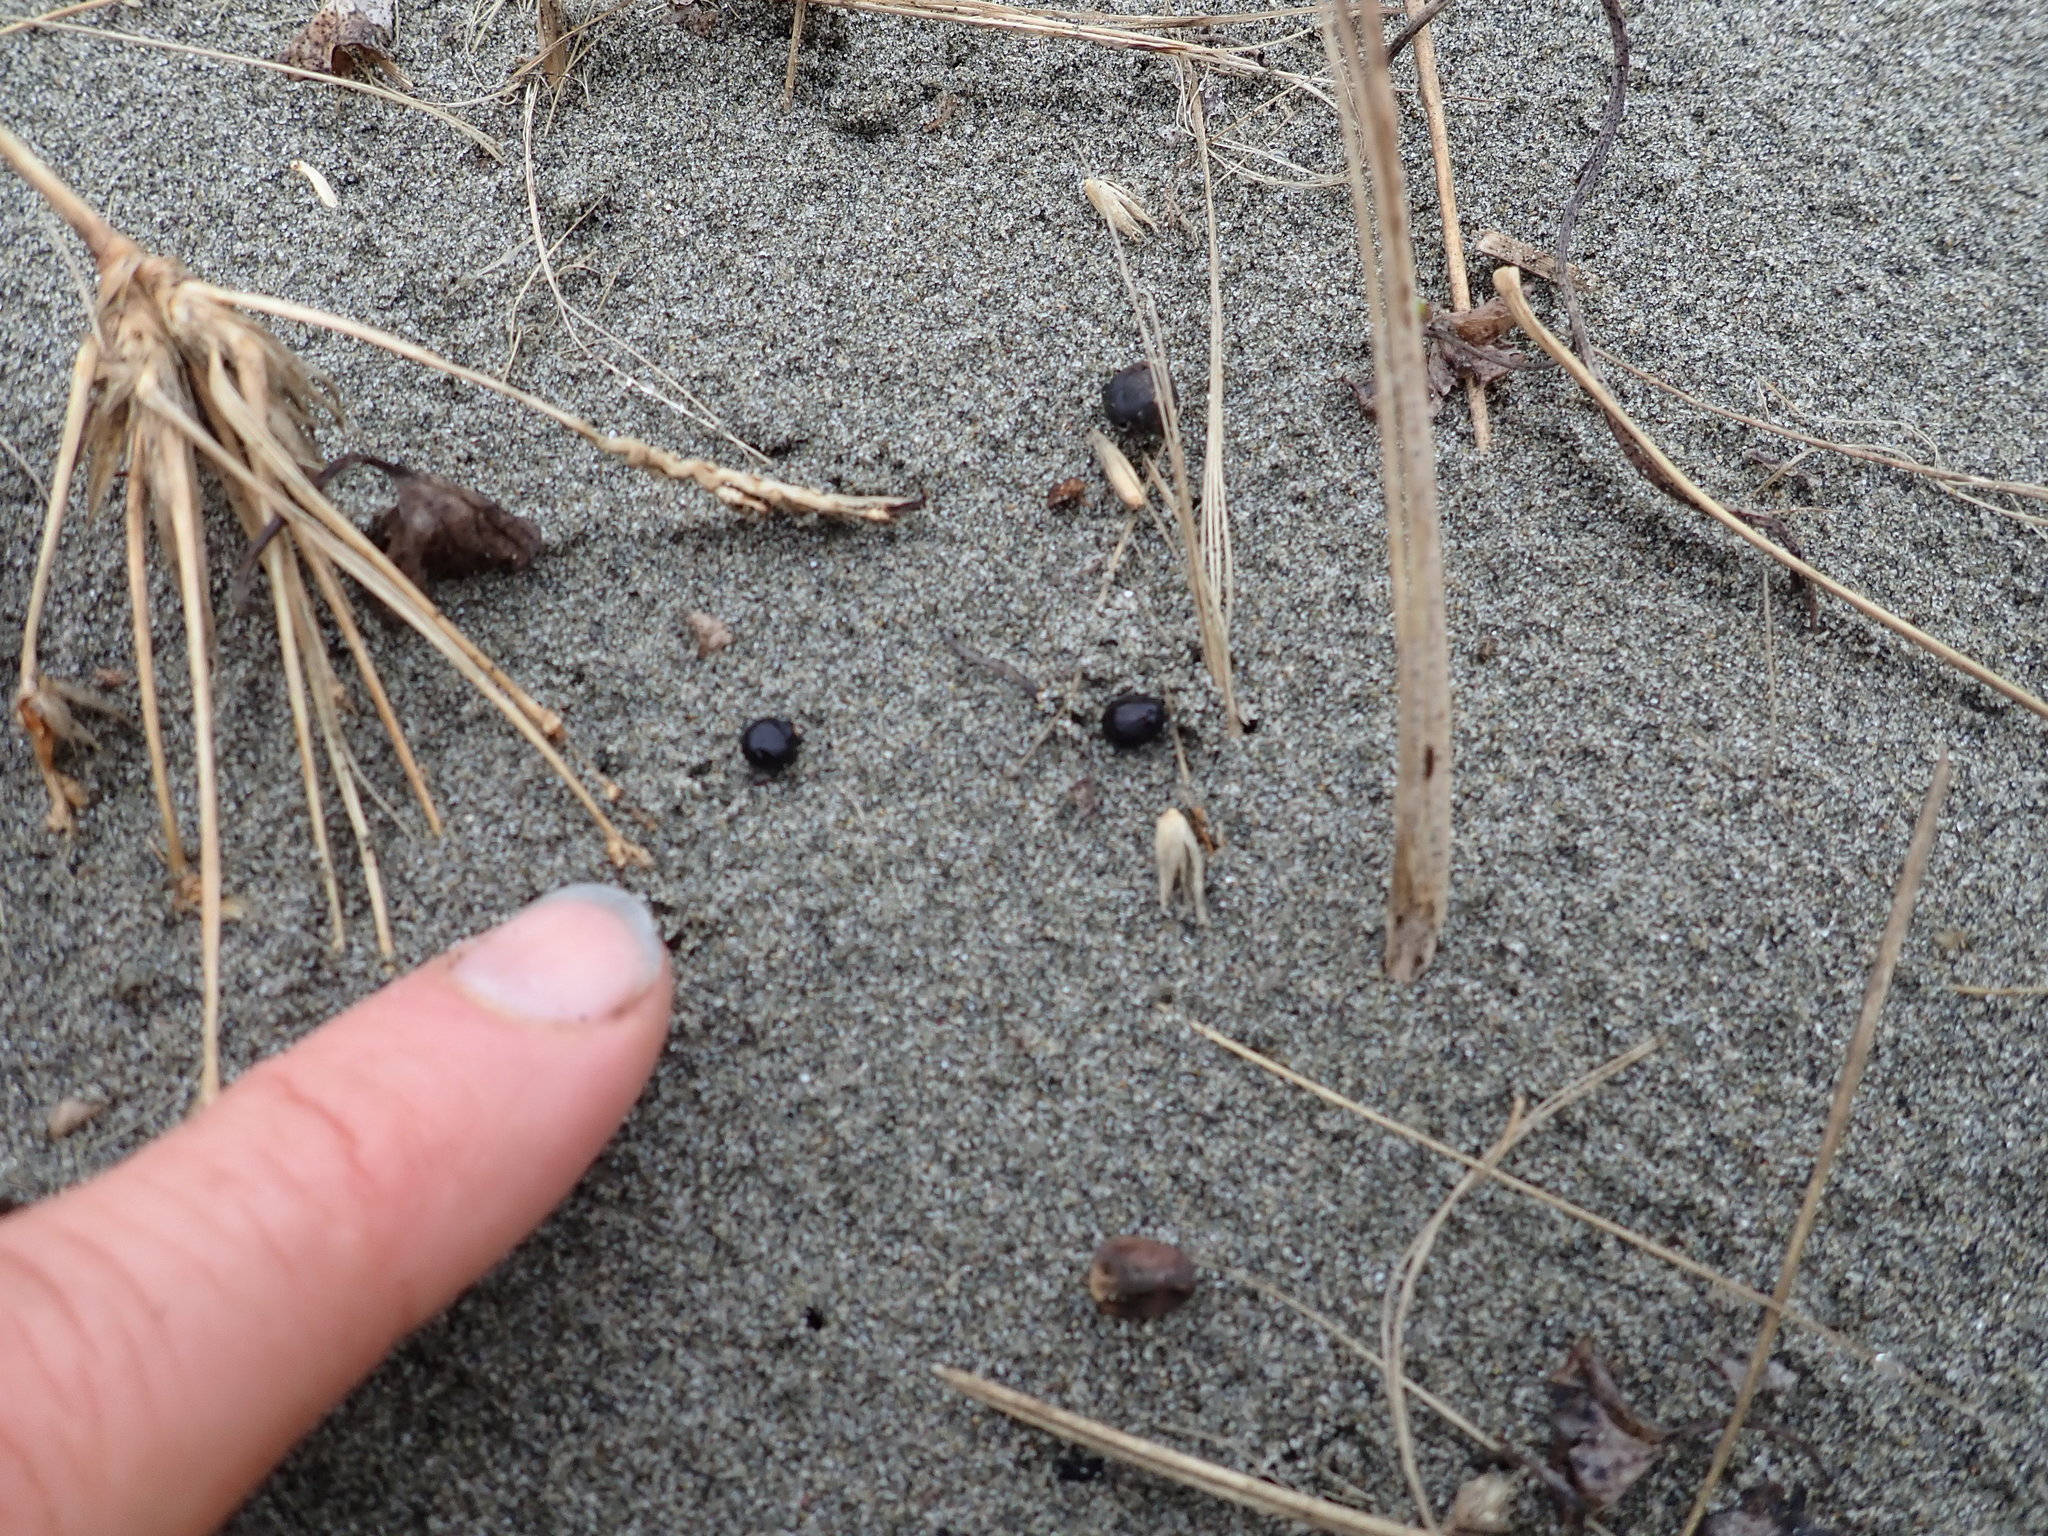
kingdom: Plantae
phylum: Tracheophyta
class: Magnoliopsida
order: Solanales
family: Convolvulaceae
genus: Calystegia
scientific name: Calystegia soldanella
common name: Sea bindweed
